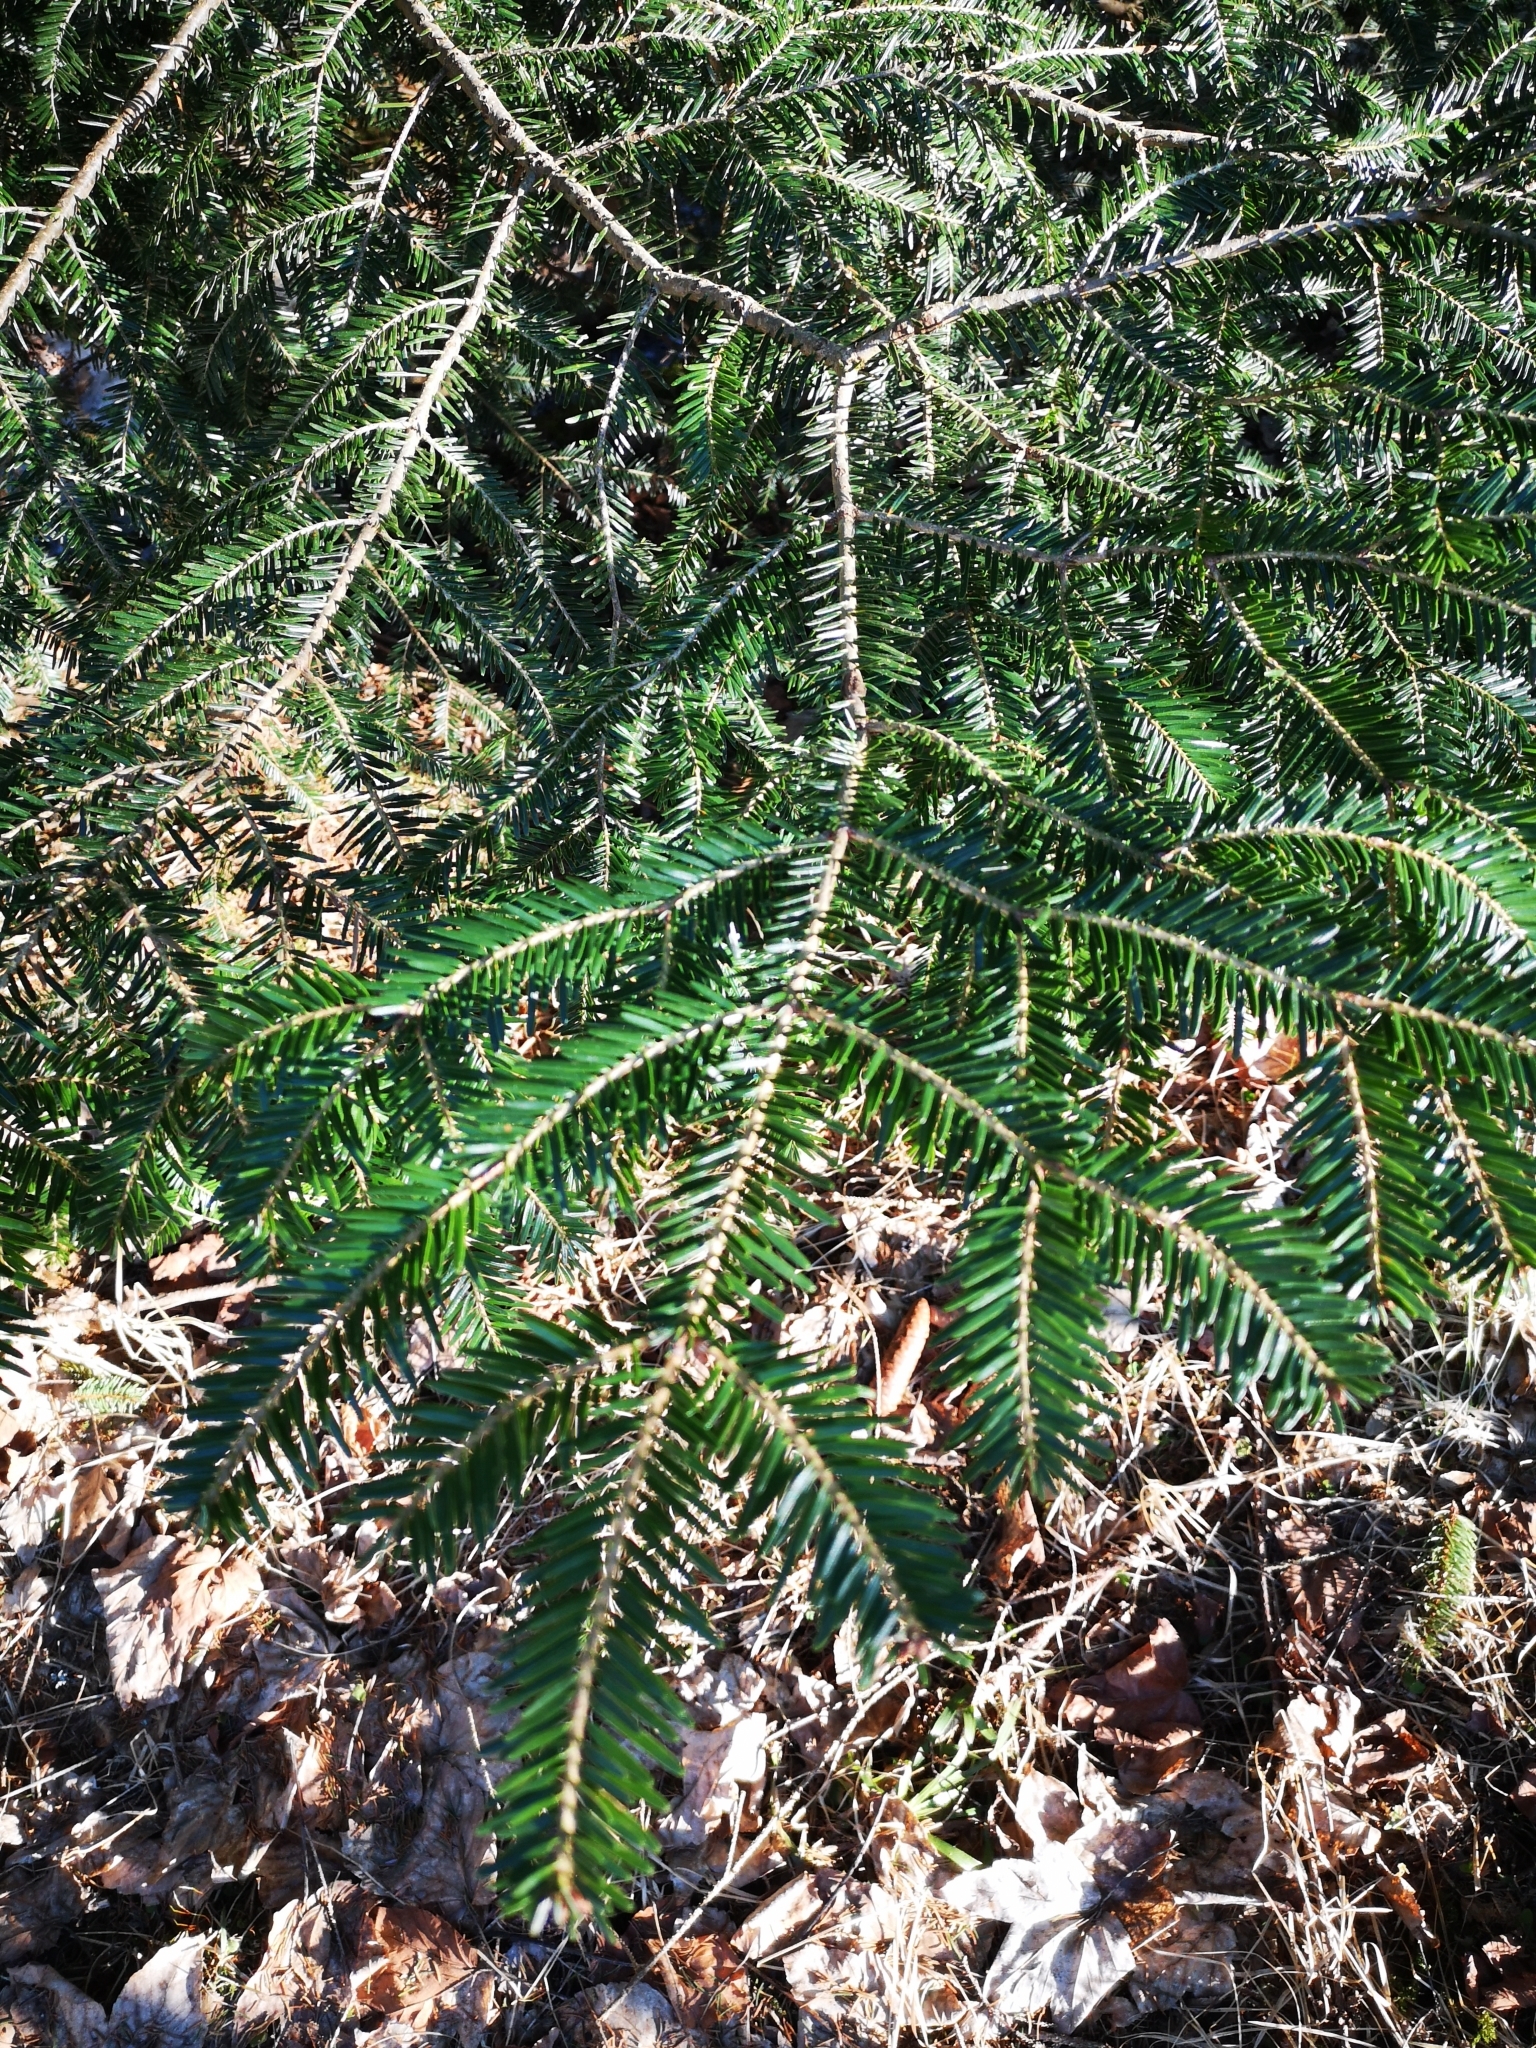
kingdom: Plantae
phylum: Tracheophyta
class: Pinopsida
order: Pinales
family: Pinaceae
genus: Abies
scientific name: Abies alba
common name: Silver fir
